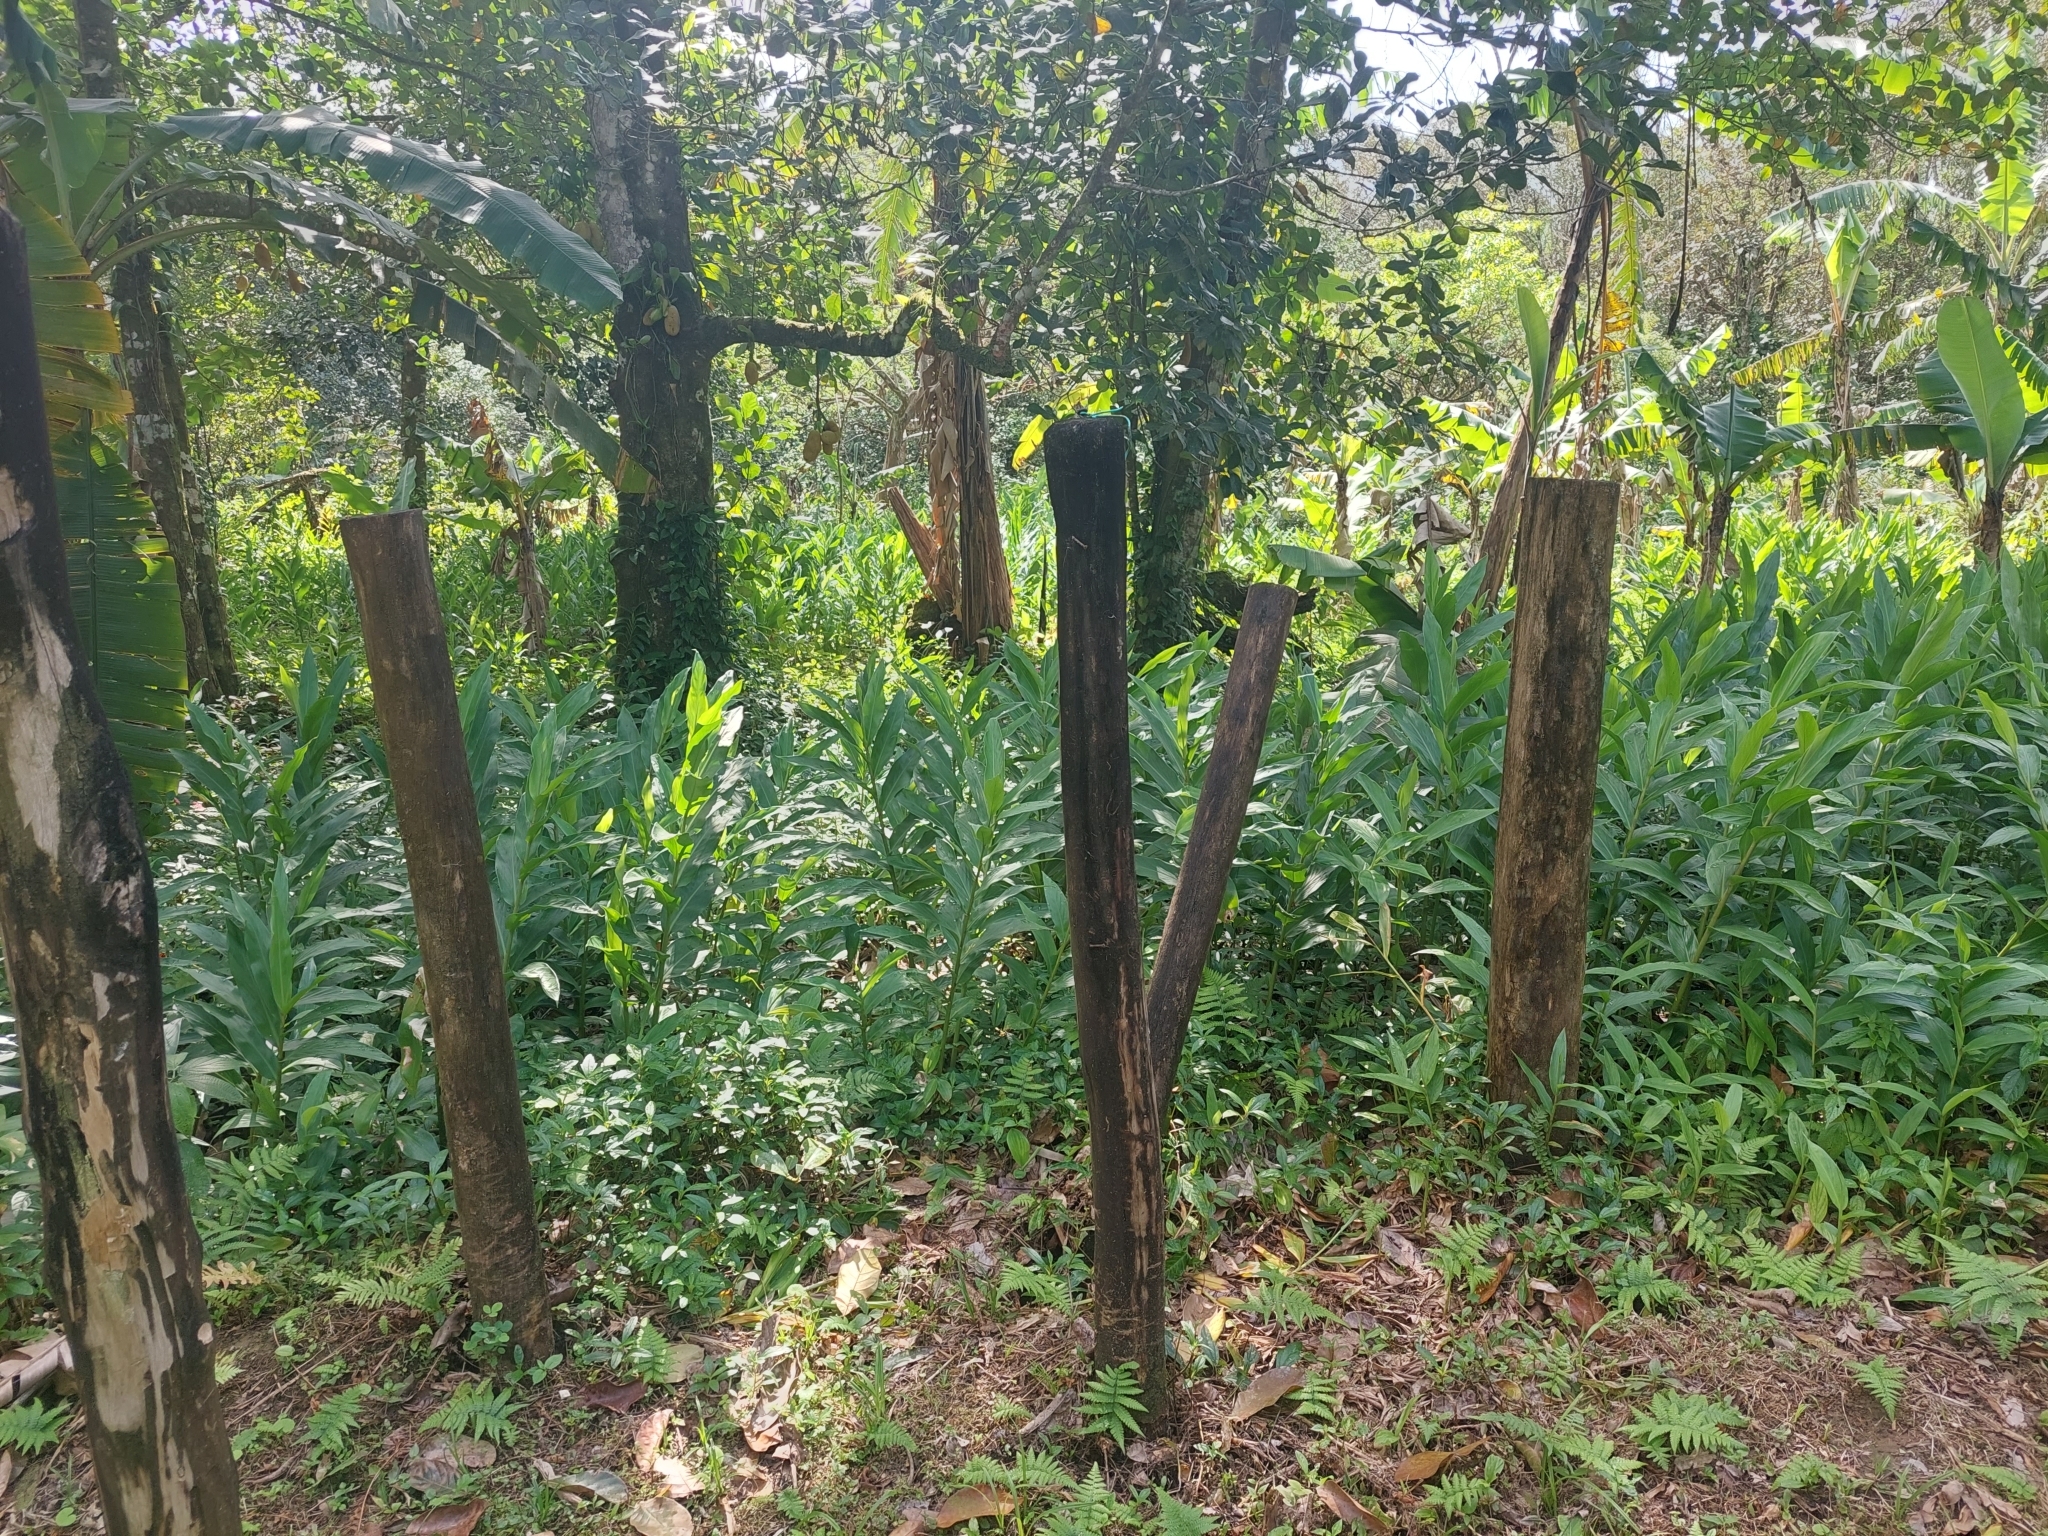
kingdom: Plantae
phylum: Tracheophyta
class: Liliopsida
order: Zingiberales
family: Zingiberaceae
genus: Hedychium
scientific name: Hedychium coronarium
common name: White garland-lily
